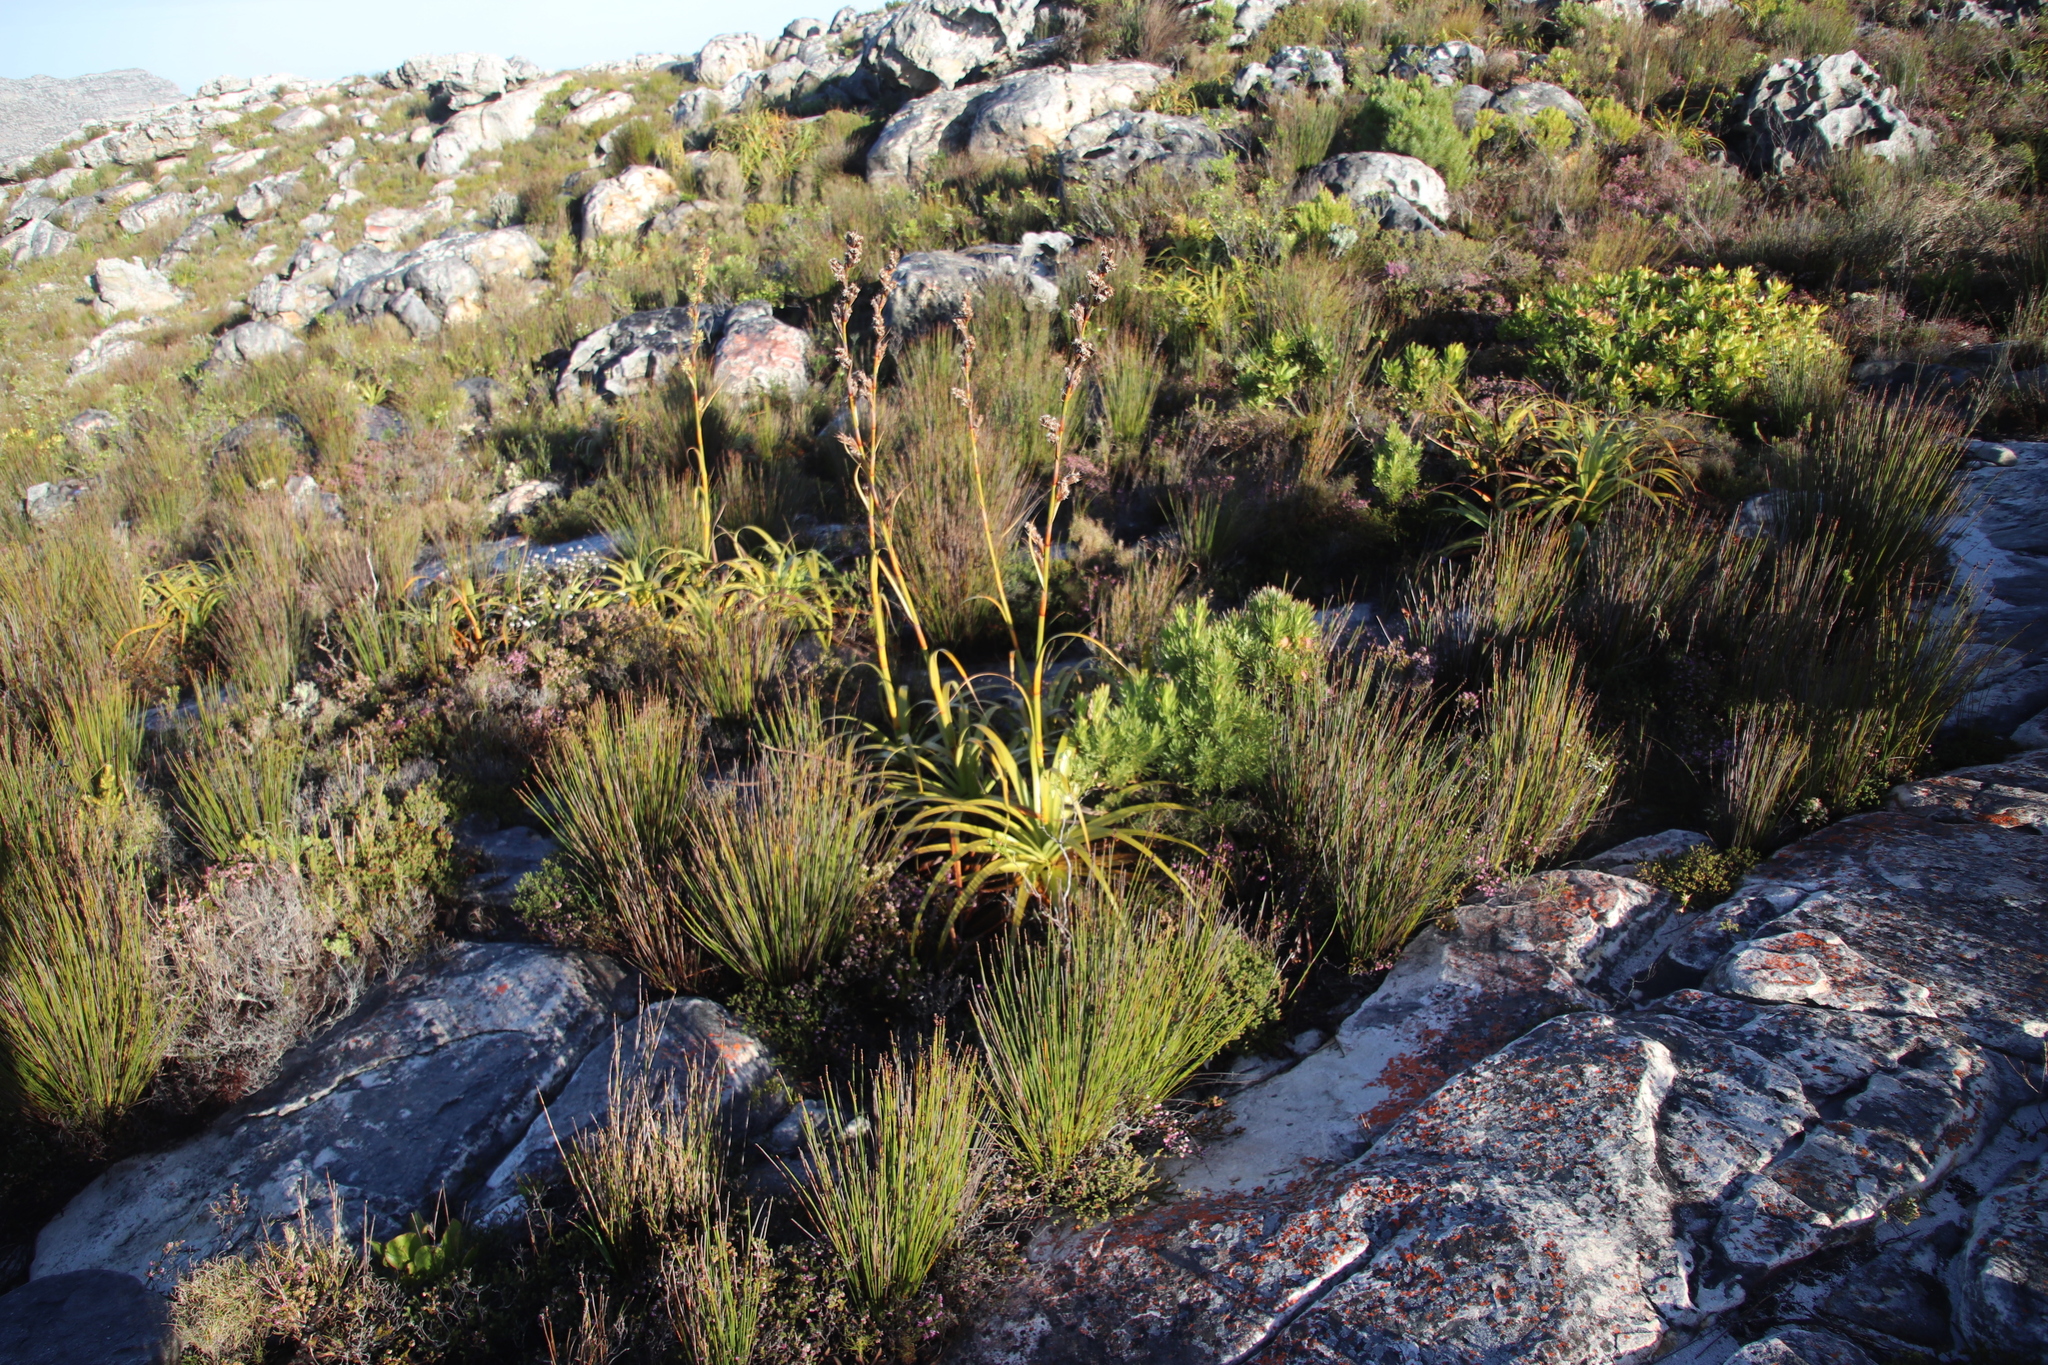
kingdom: Plantae
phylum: Tracheophyta
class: Liliopsida
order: Poales
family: Cyperaceae
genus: Tetraria
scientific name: Tetraria thermalis
